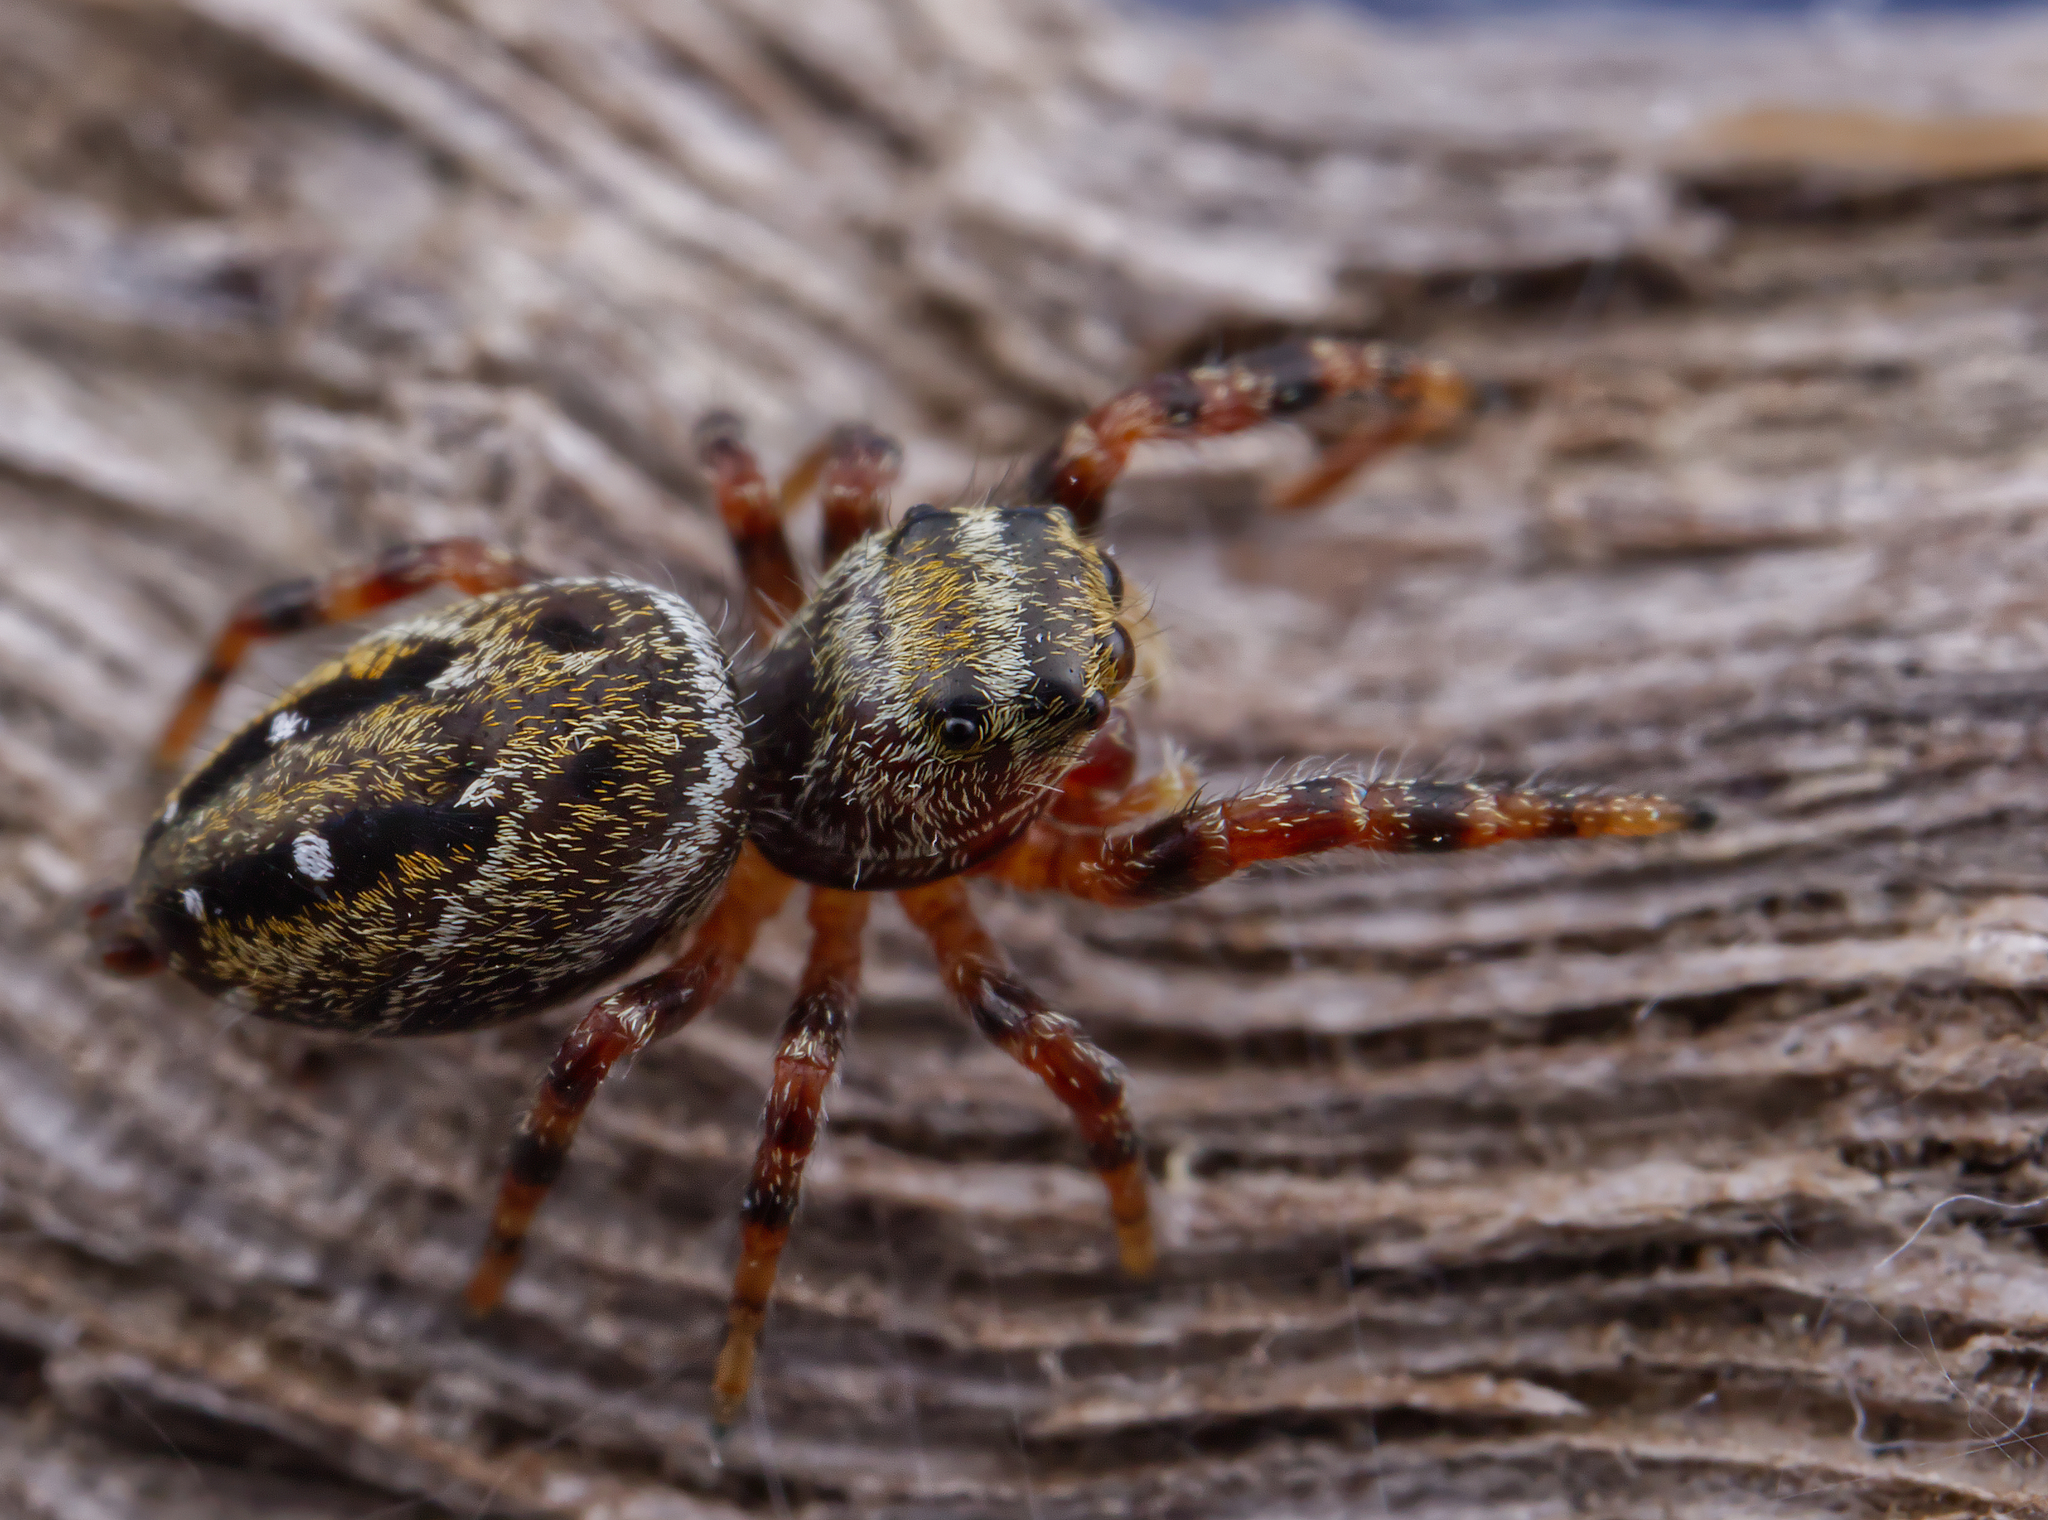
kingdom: Animalia
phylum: Arthropoda
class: Arachnida
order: Araneae
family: Salticidae
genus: Phidippus
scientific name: Phidippus clarus
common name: Brilliant jumping spider
